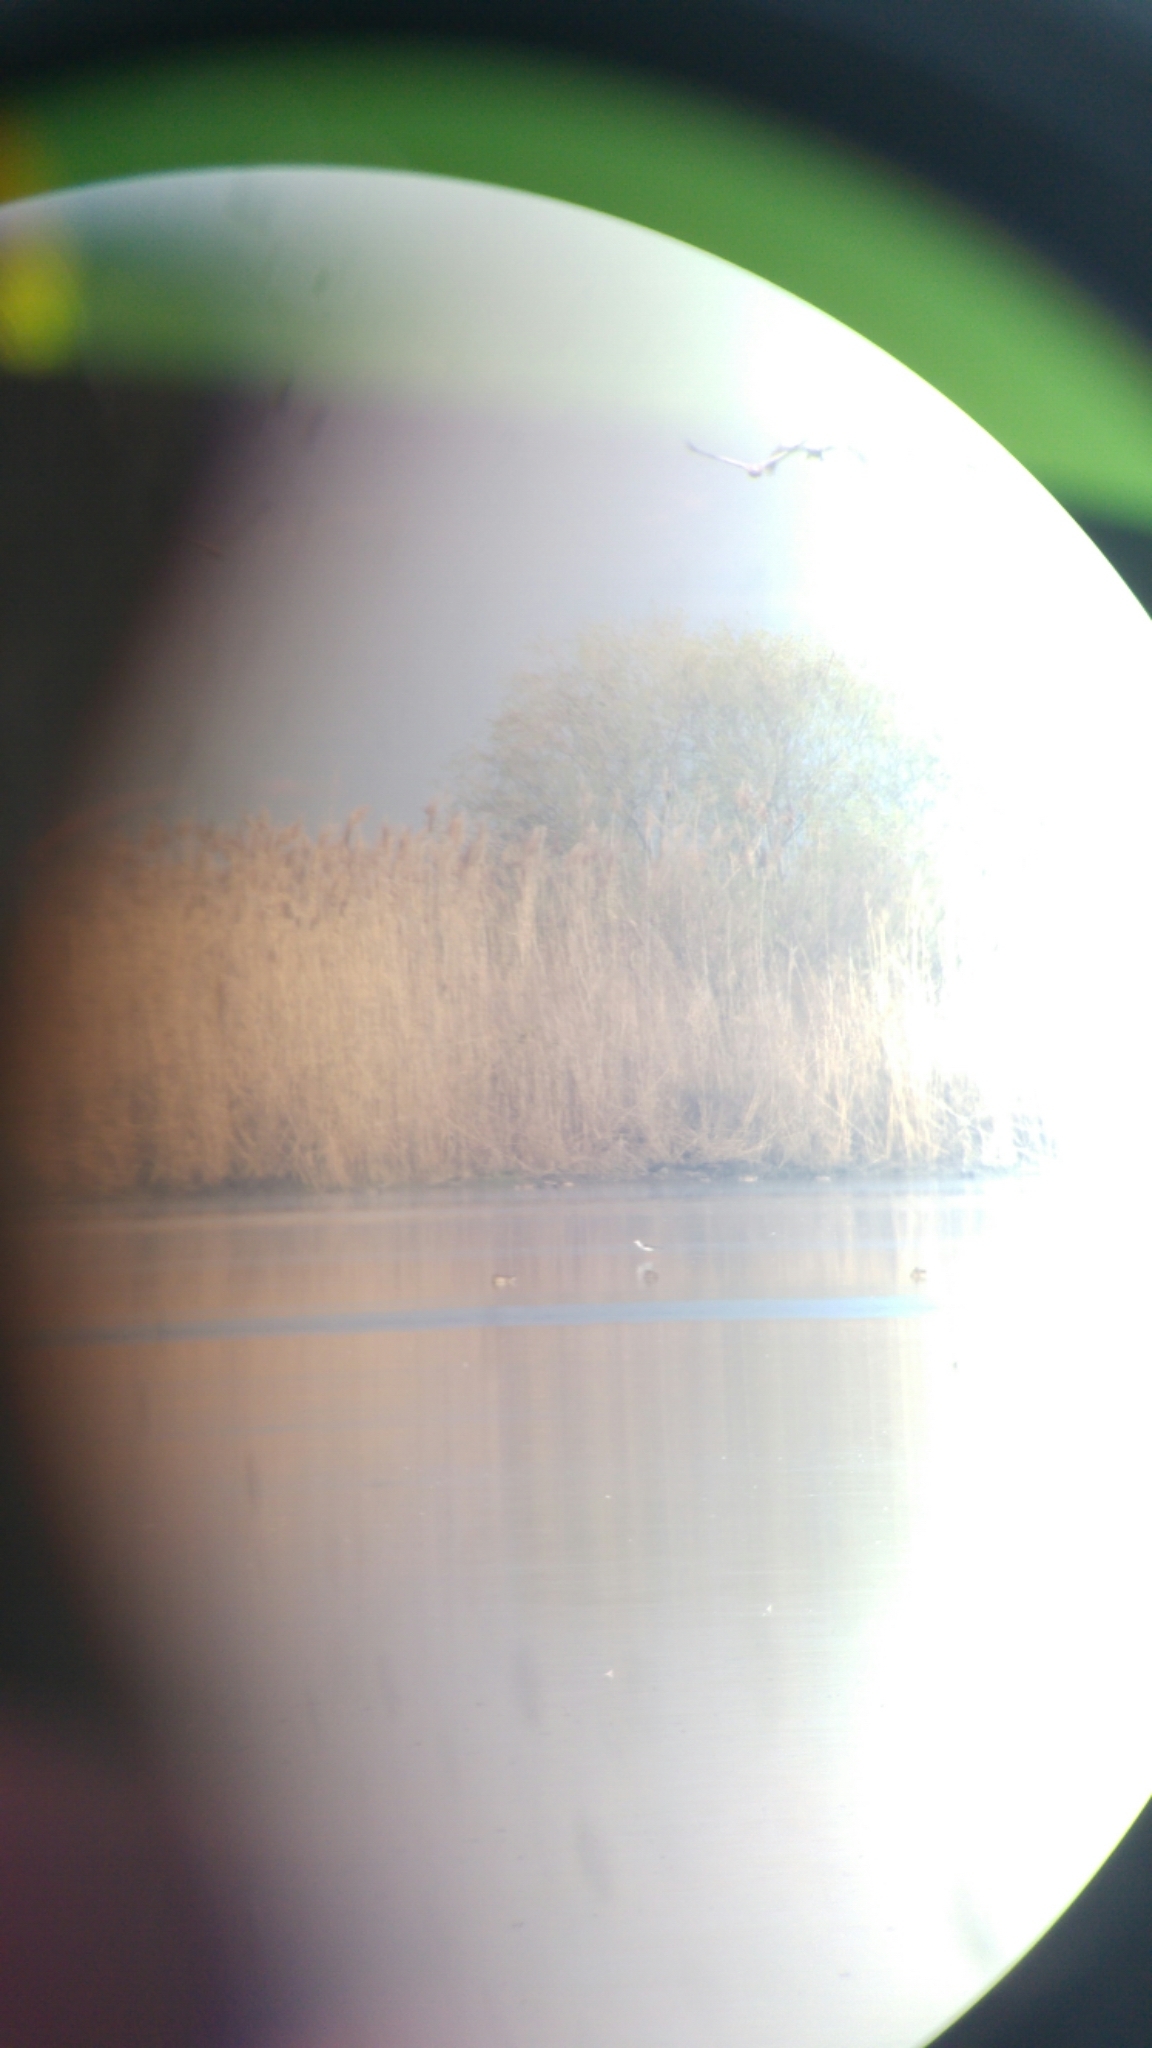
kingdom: Animalia
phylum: Chordata
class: Aves
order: Charadriiformes
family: Recurvirostridae
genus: Himantopus
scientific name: Himantopus himantopus
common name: Black-winged stilt
